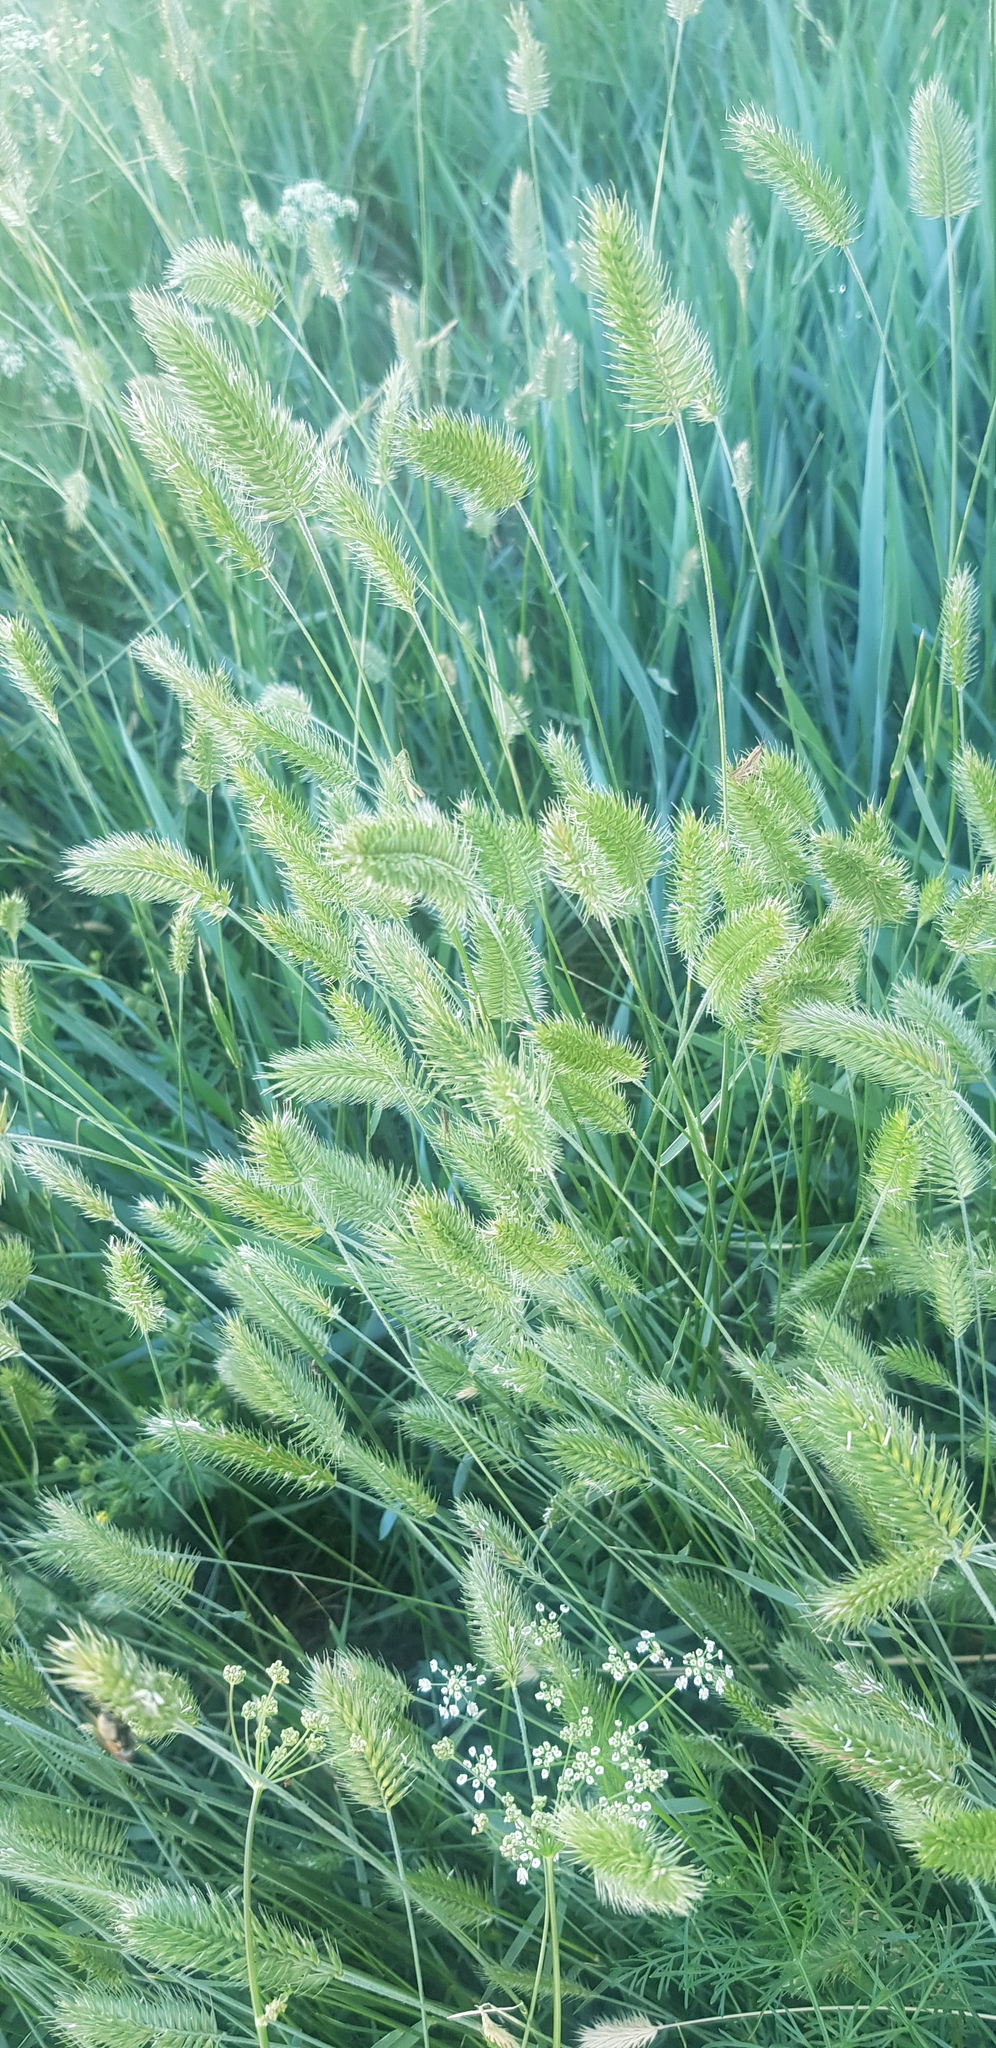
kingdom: Plantae
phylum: Tracheophyta
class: Liliopsida
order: Poales
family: Poaceae
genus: Agropyron
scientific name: Agropyron cristatum
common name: Crested wheatgrass
